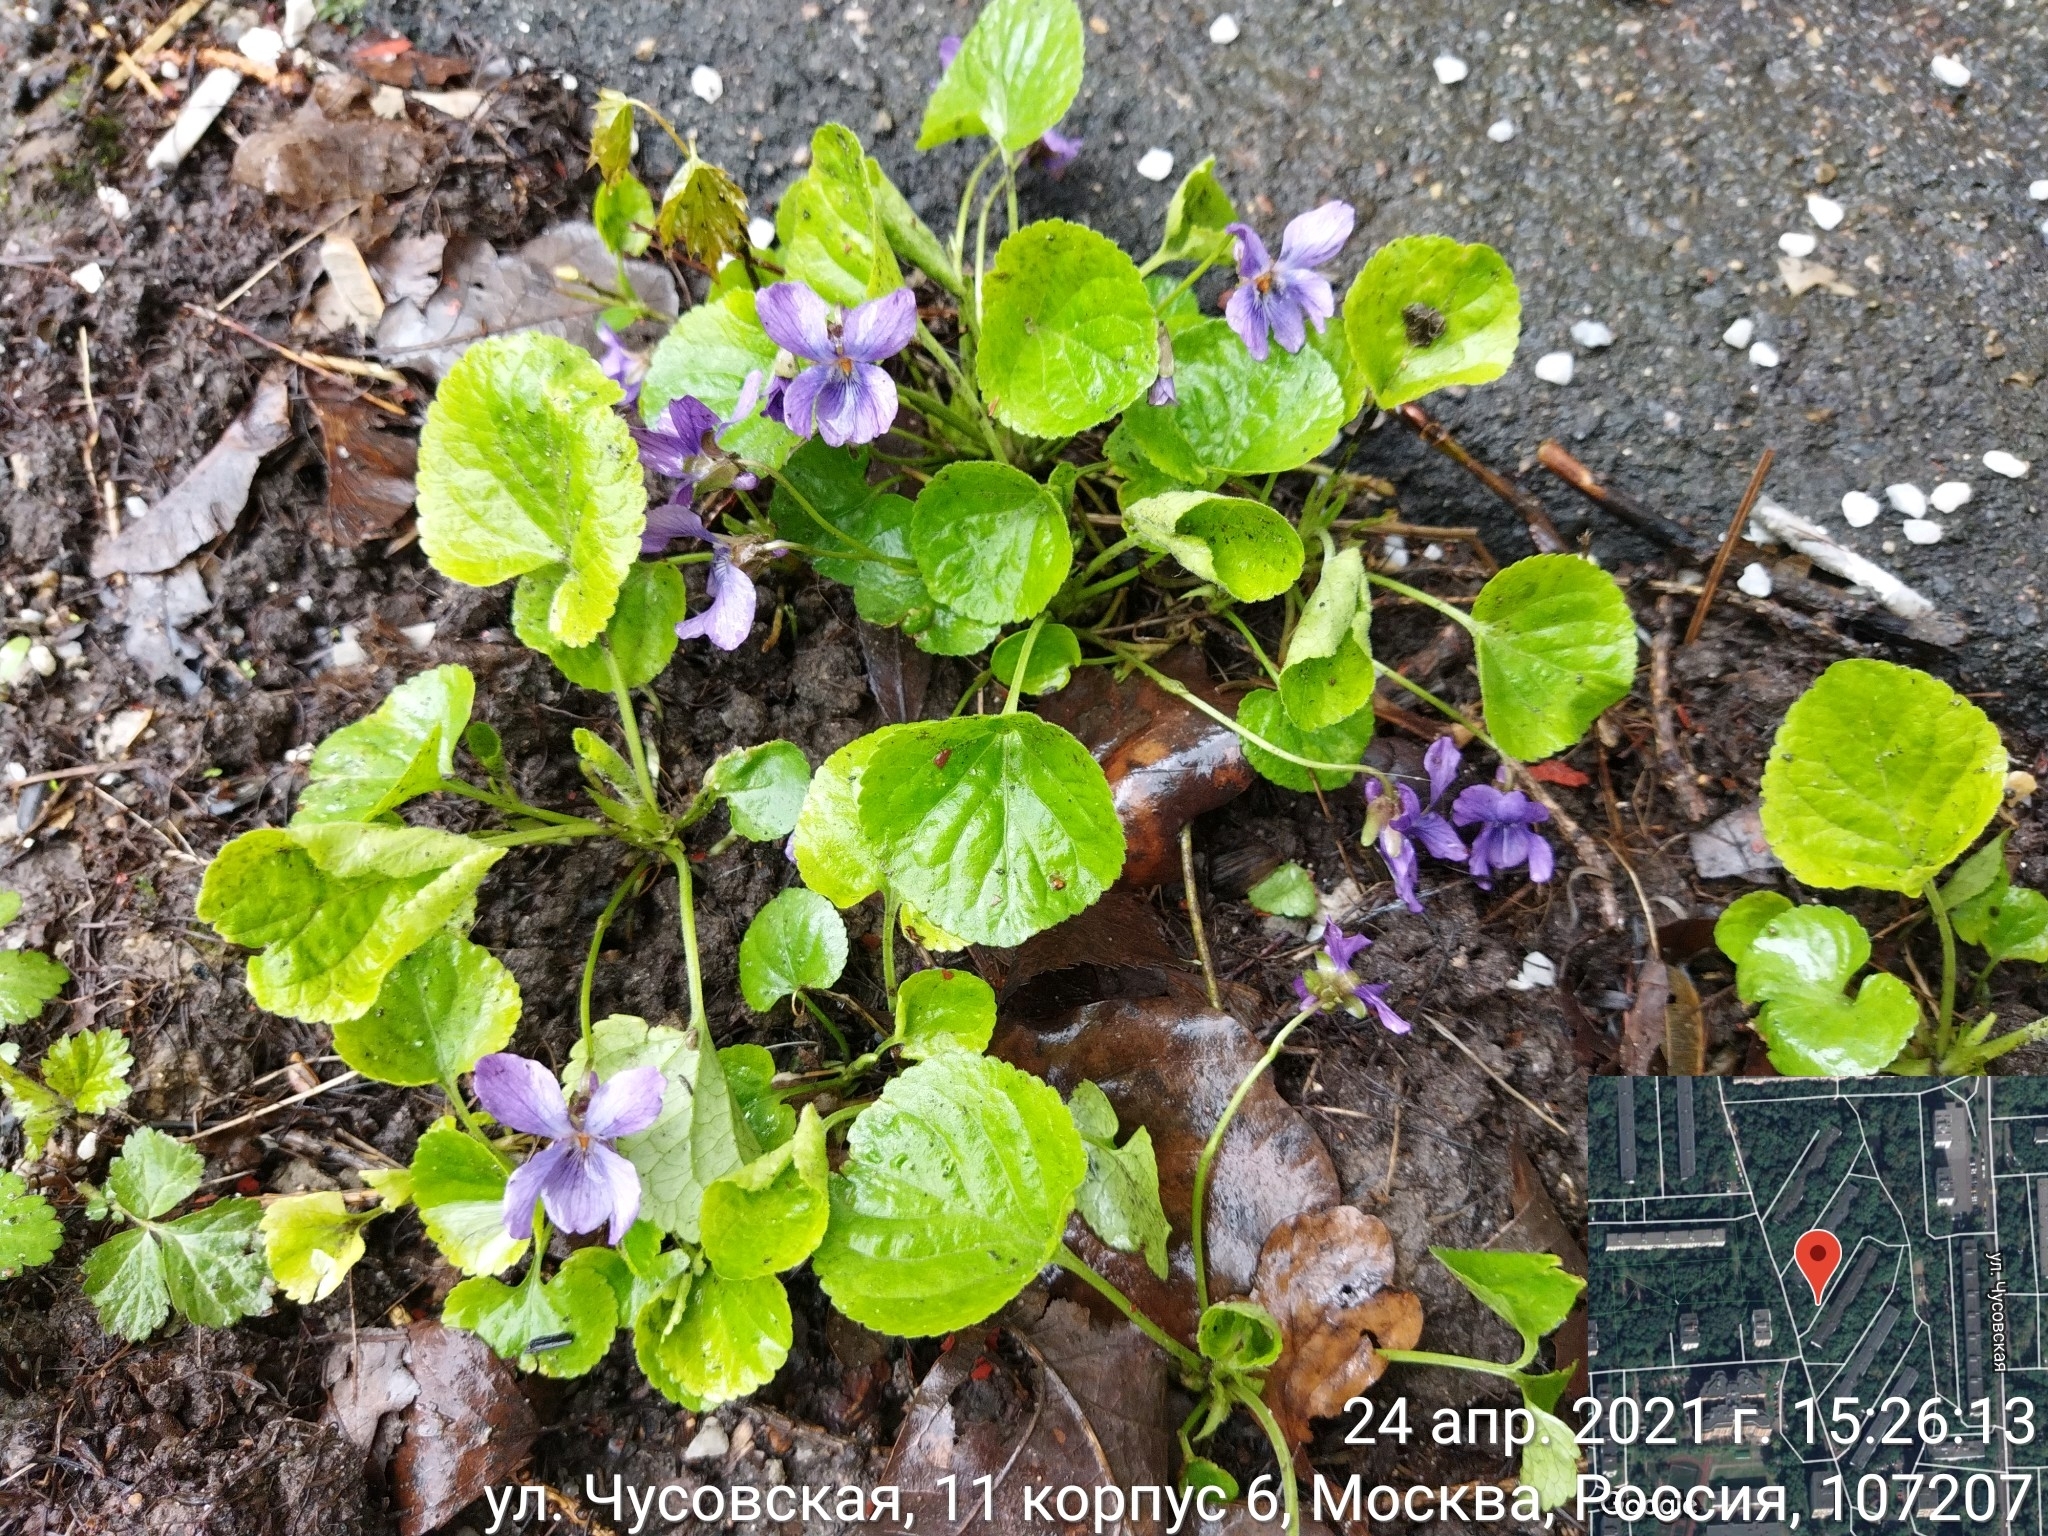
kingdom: Plantae
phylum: Tracheophyta
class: Magnoliopsida
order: Malpighiales
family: Violaceae
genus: Viola
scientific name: Viola odorata
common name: Sweet violet
